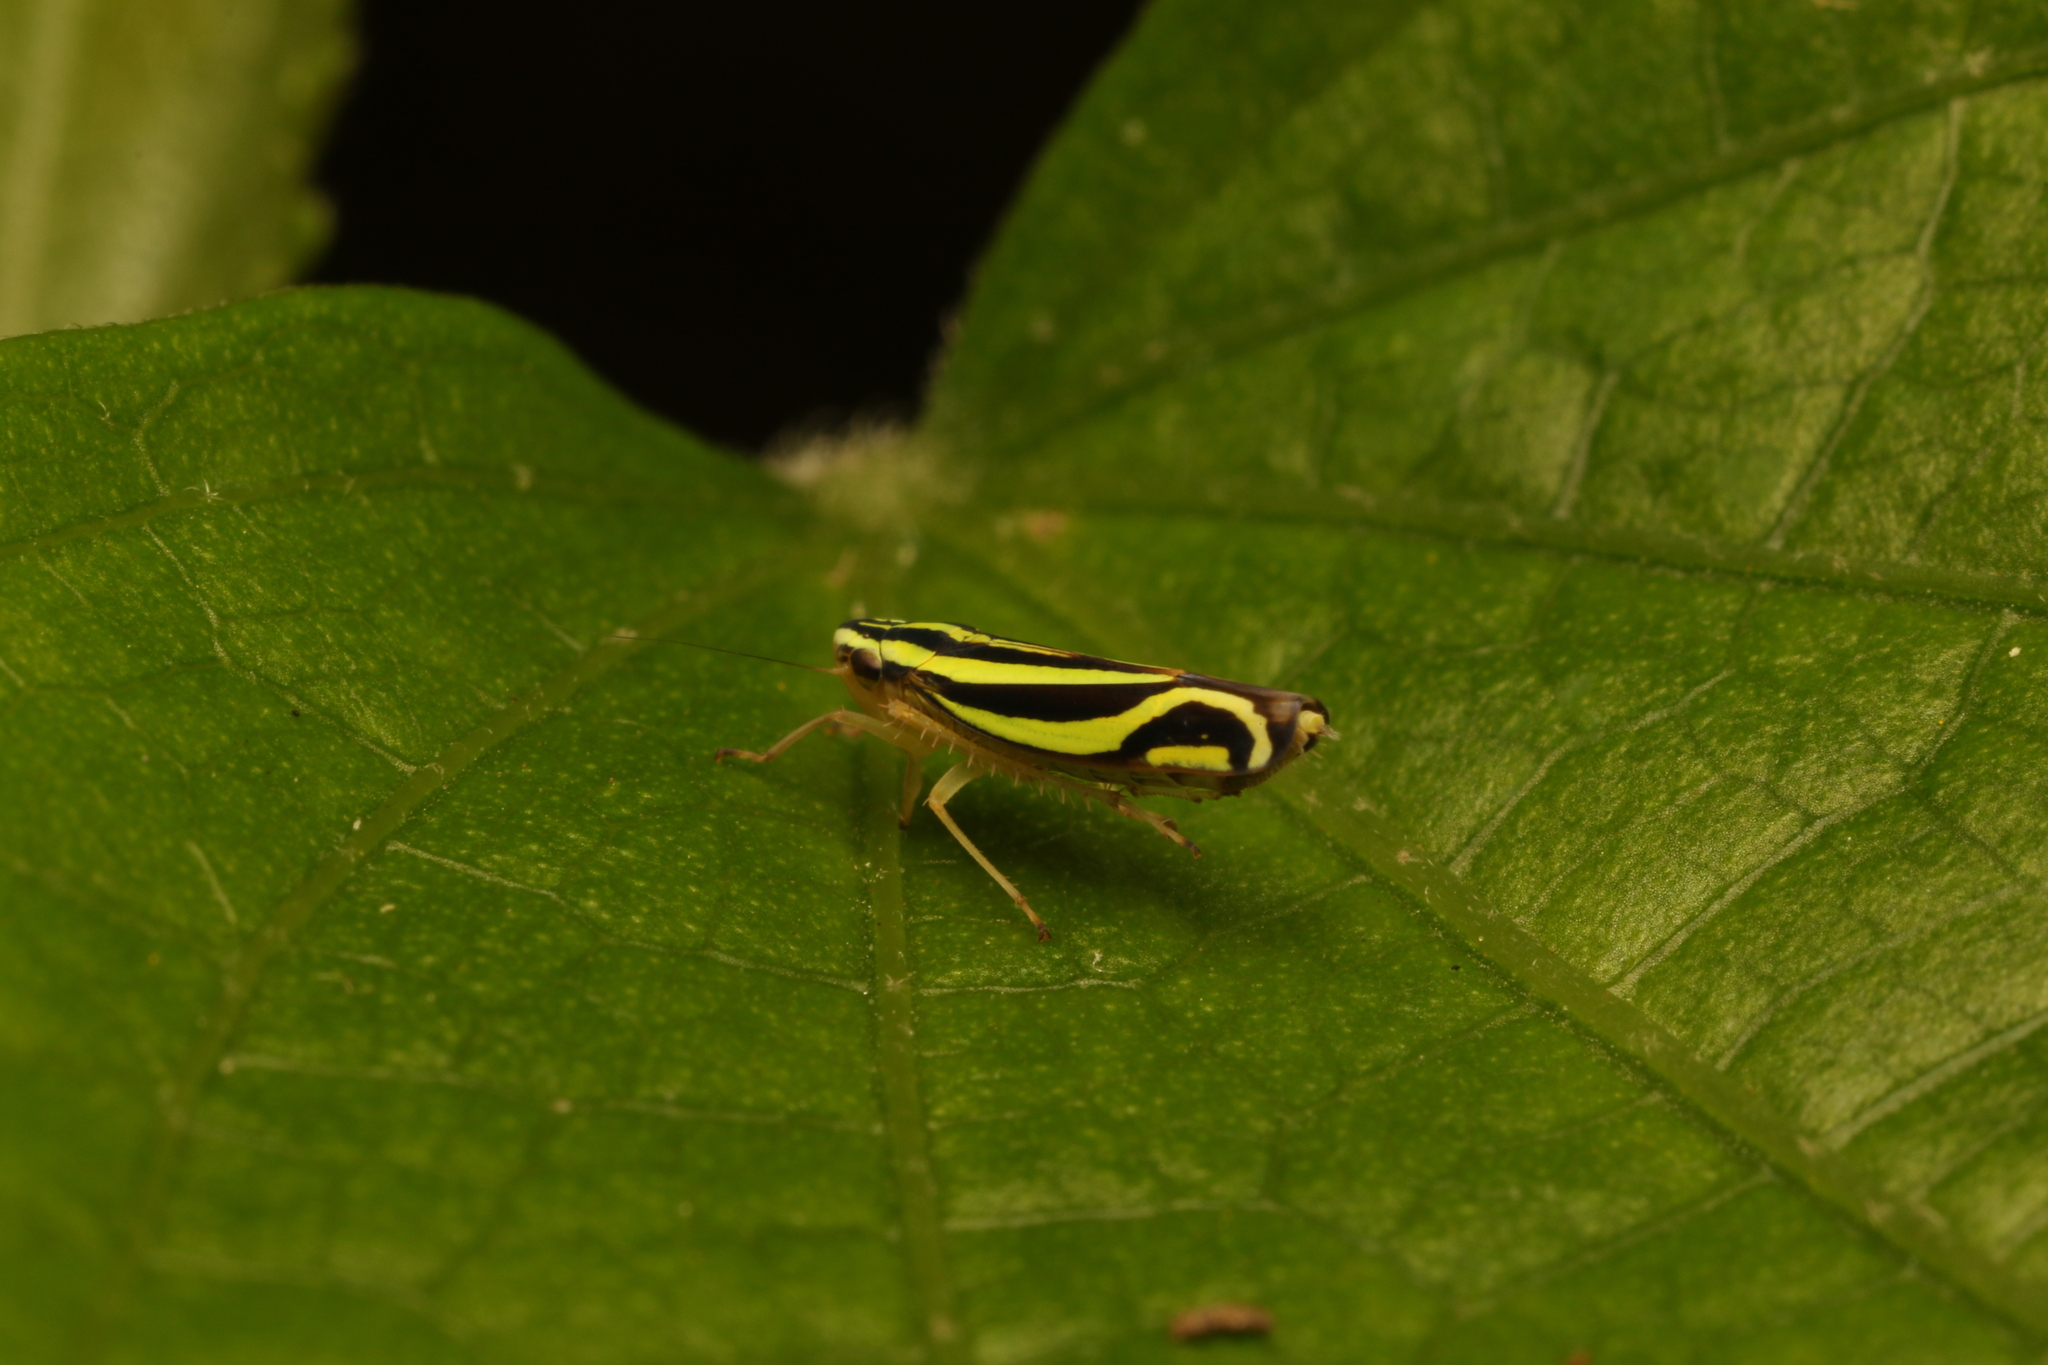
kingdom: Animalia
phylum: Arthropoda
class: Insecta
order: Hemiptera
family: Cicadellidae
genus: Sibovia
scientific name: Sibovia sagata
